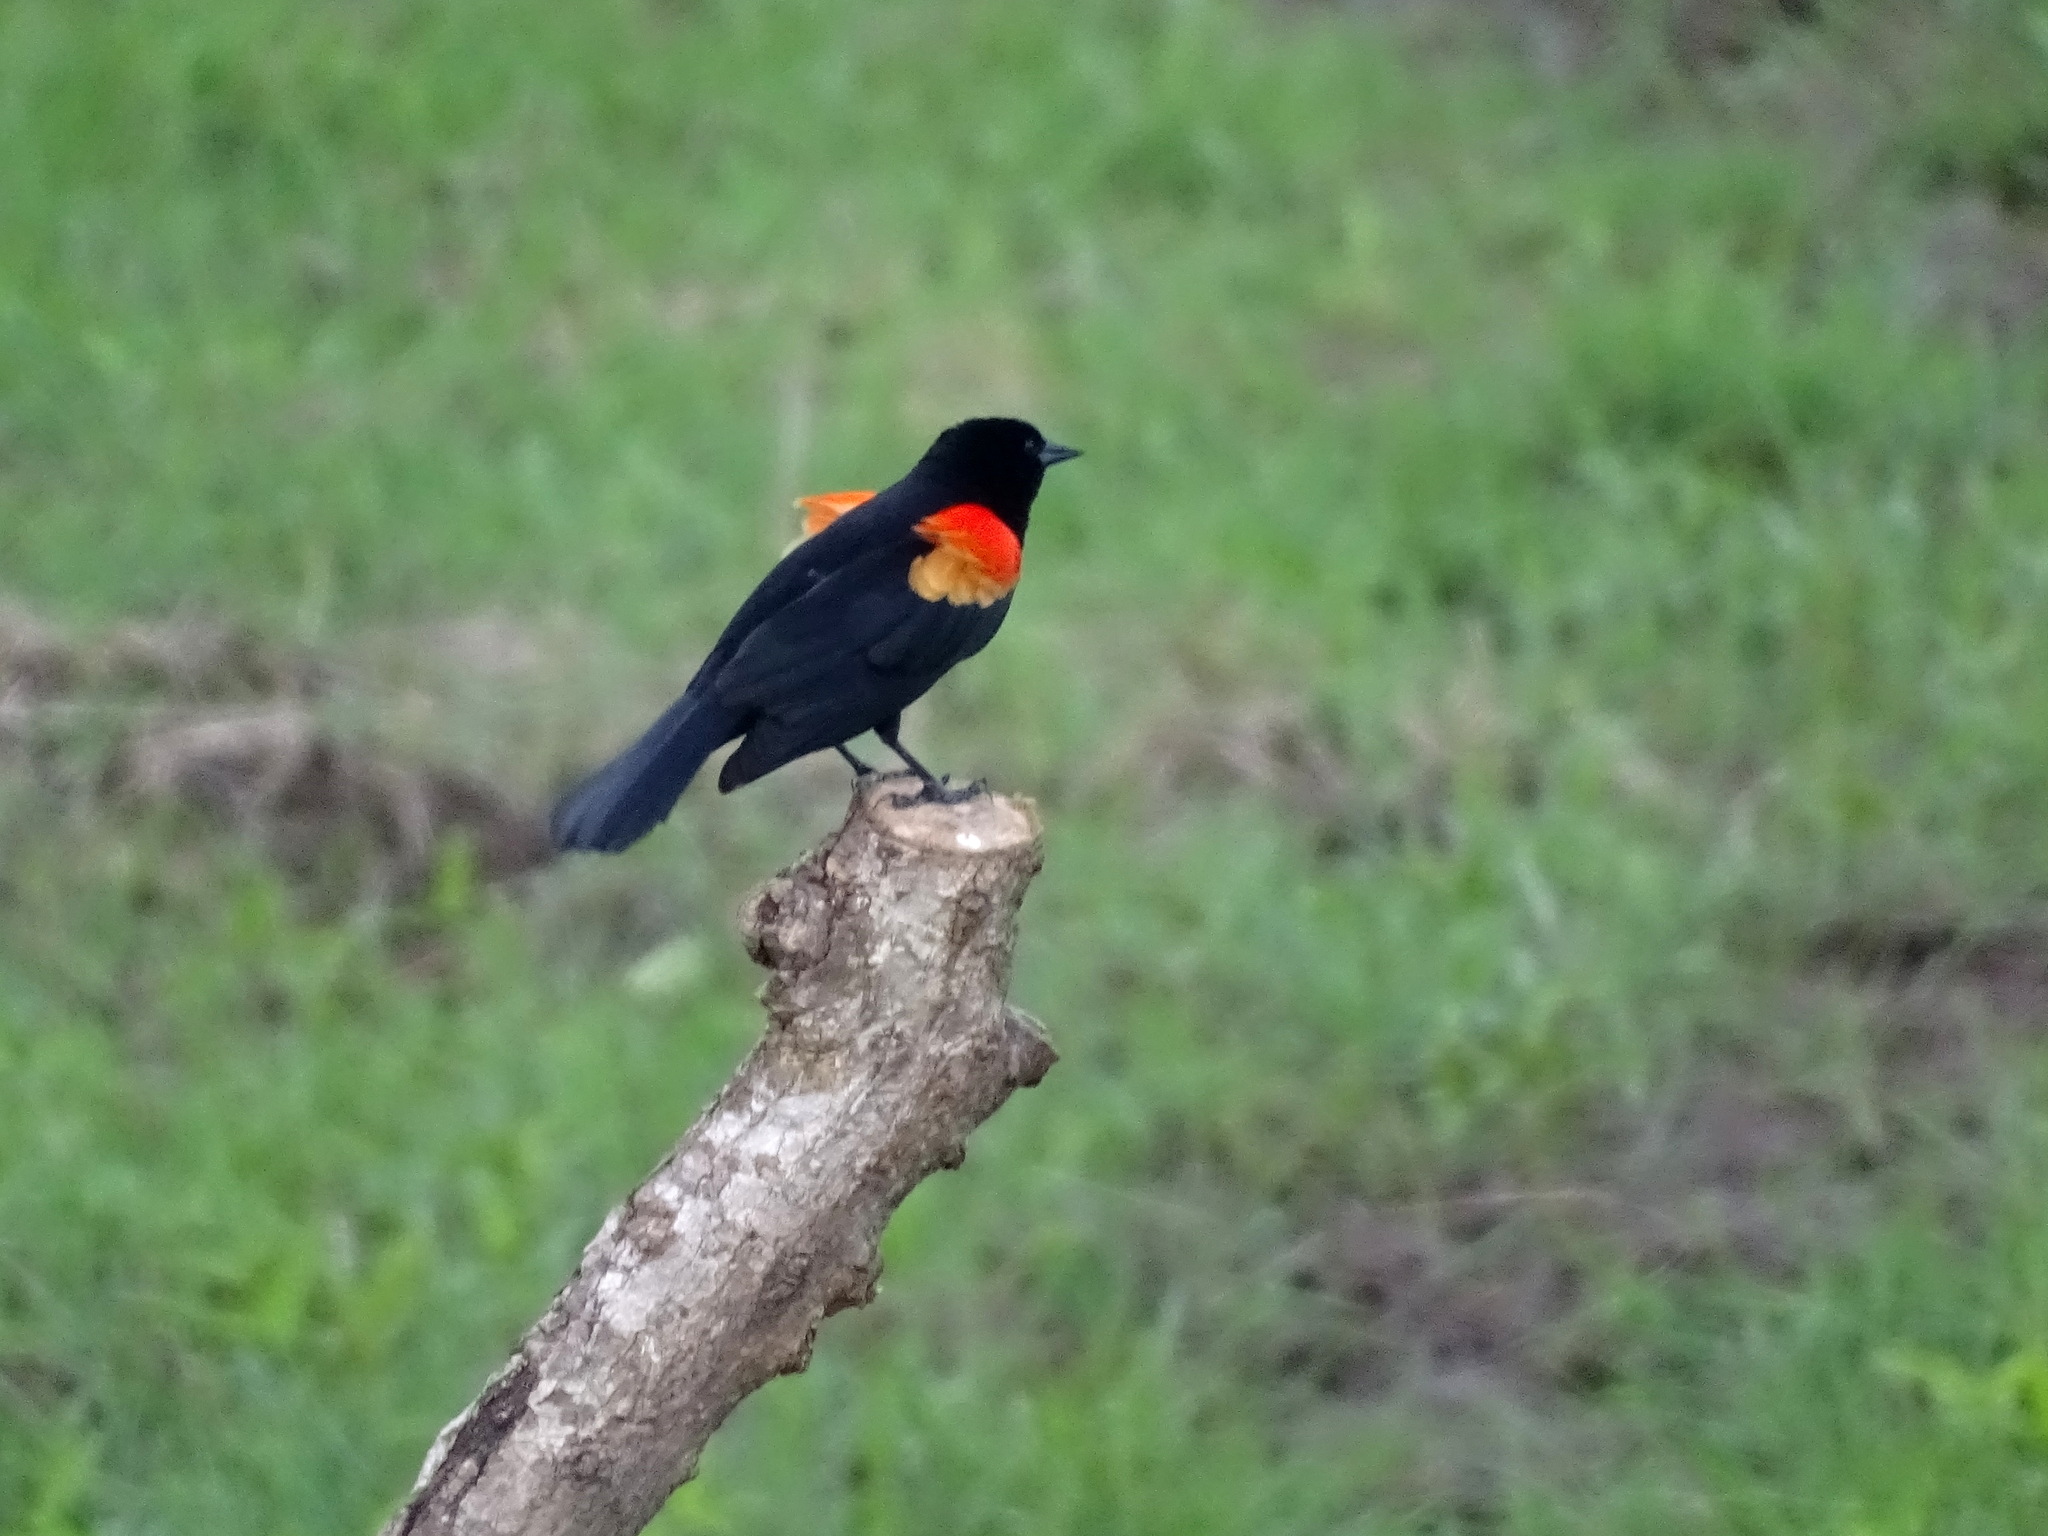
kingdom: Animalia
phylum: Chordata
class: Aves
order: Passeriformes
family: Icteridae
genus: Agelaius
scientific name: Agelaius phoeniceus
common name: Red-winged blackbird
